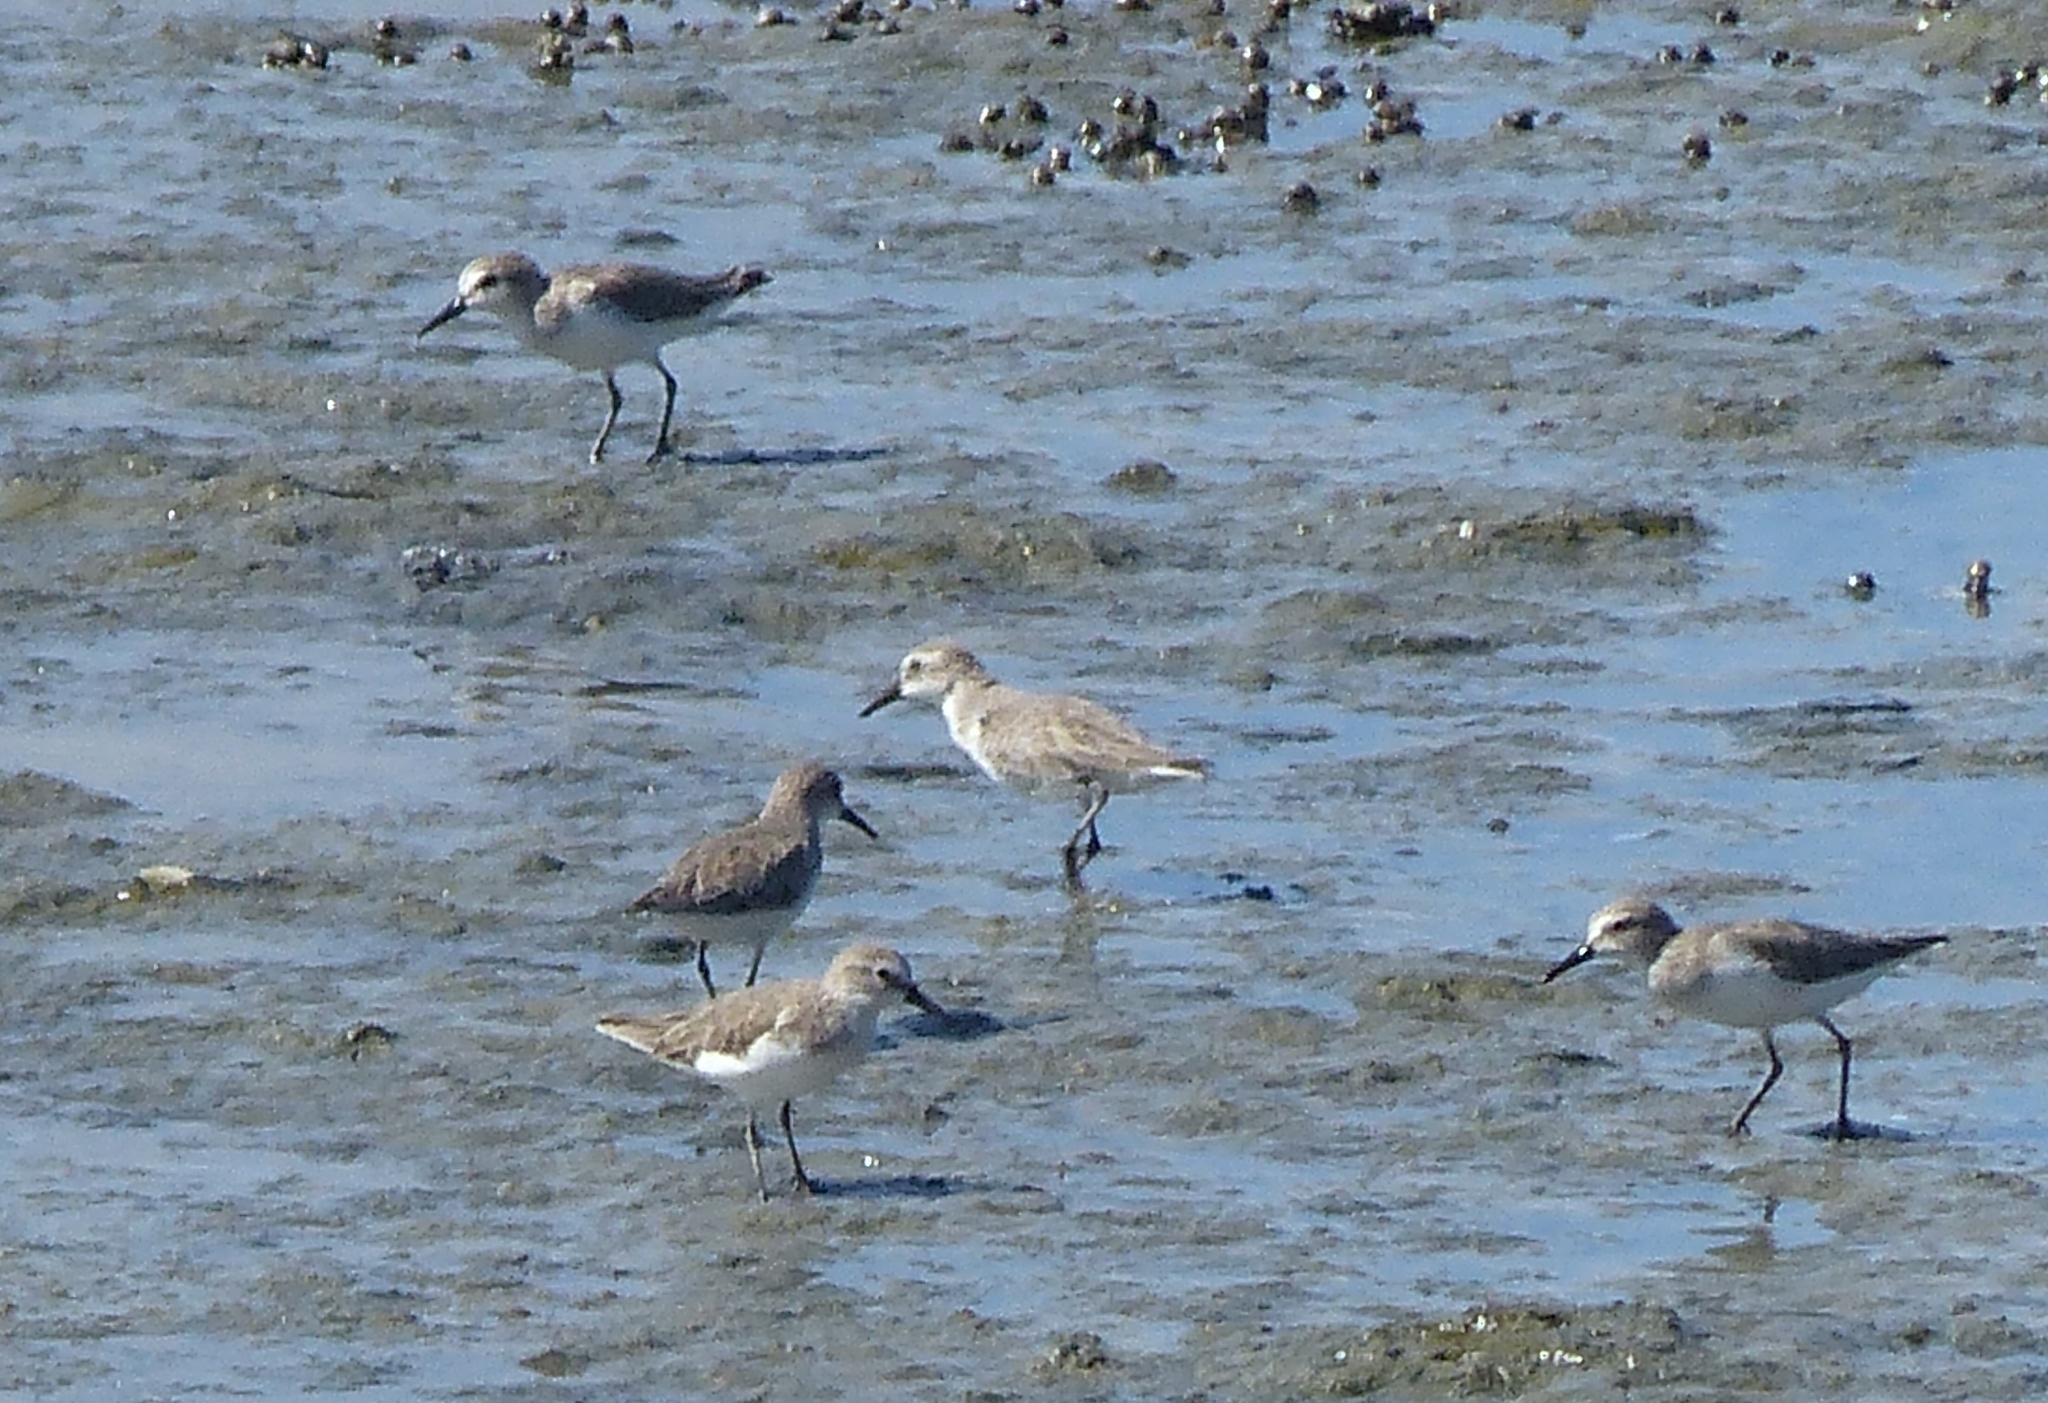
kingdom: Animalia
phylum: Chordata
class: Aves
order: Charadriiformes
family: Scolopacidae
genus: Calidris
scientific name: Calidris pusilla
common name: Semipalmated sandpiper
